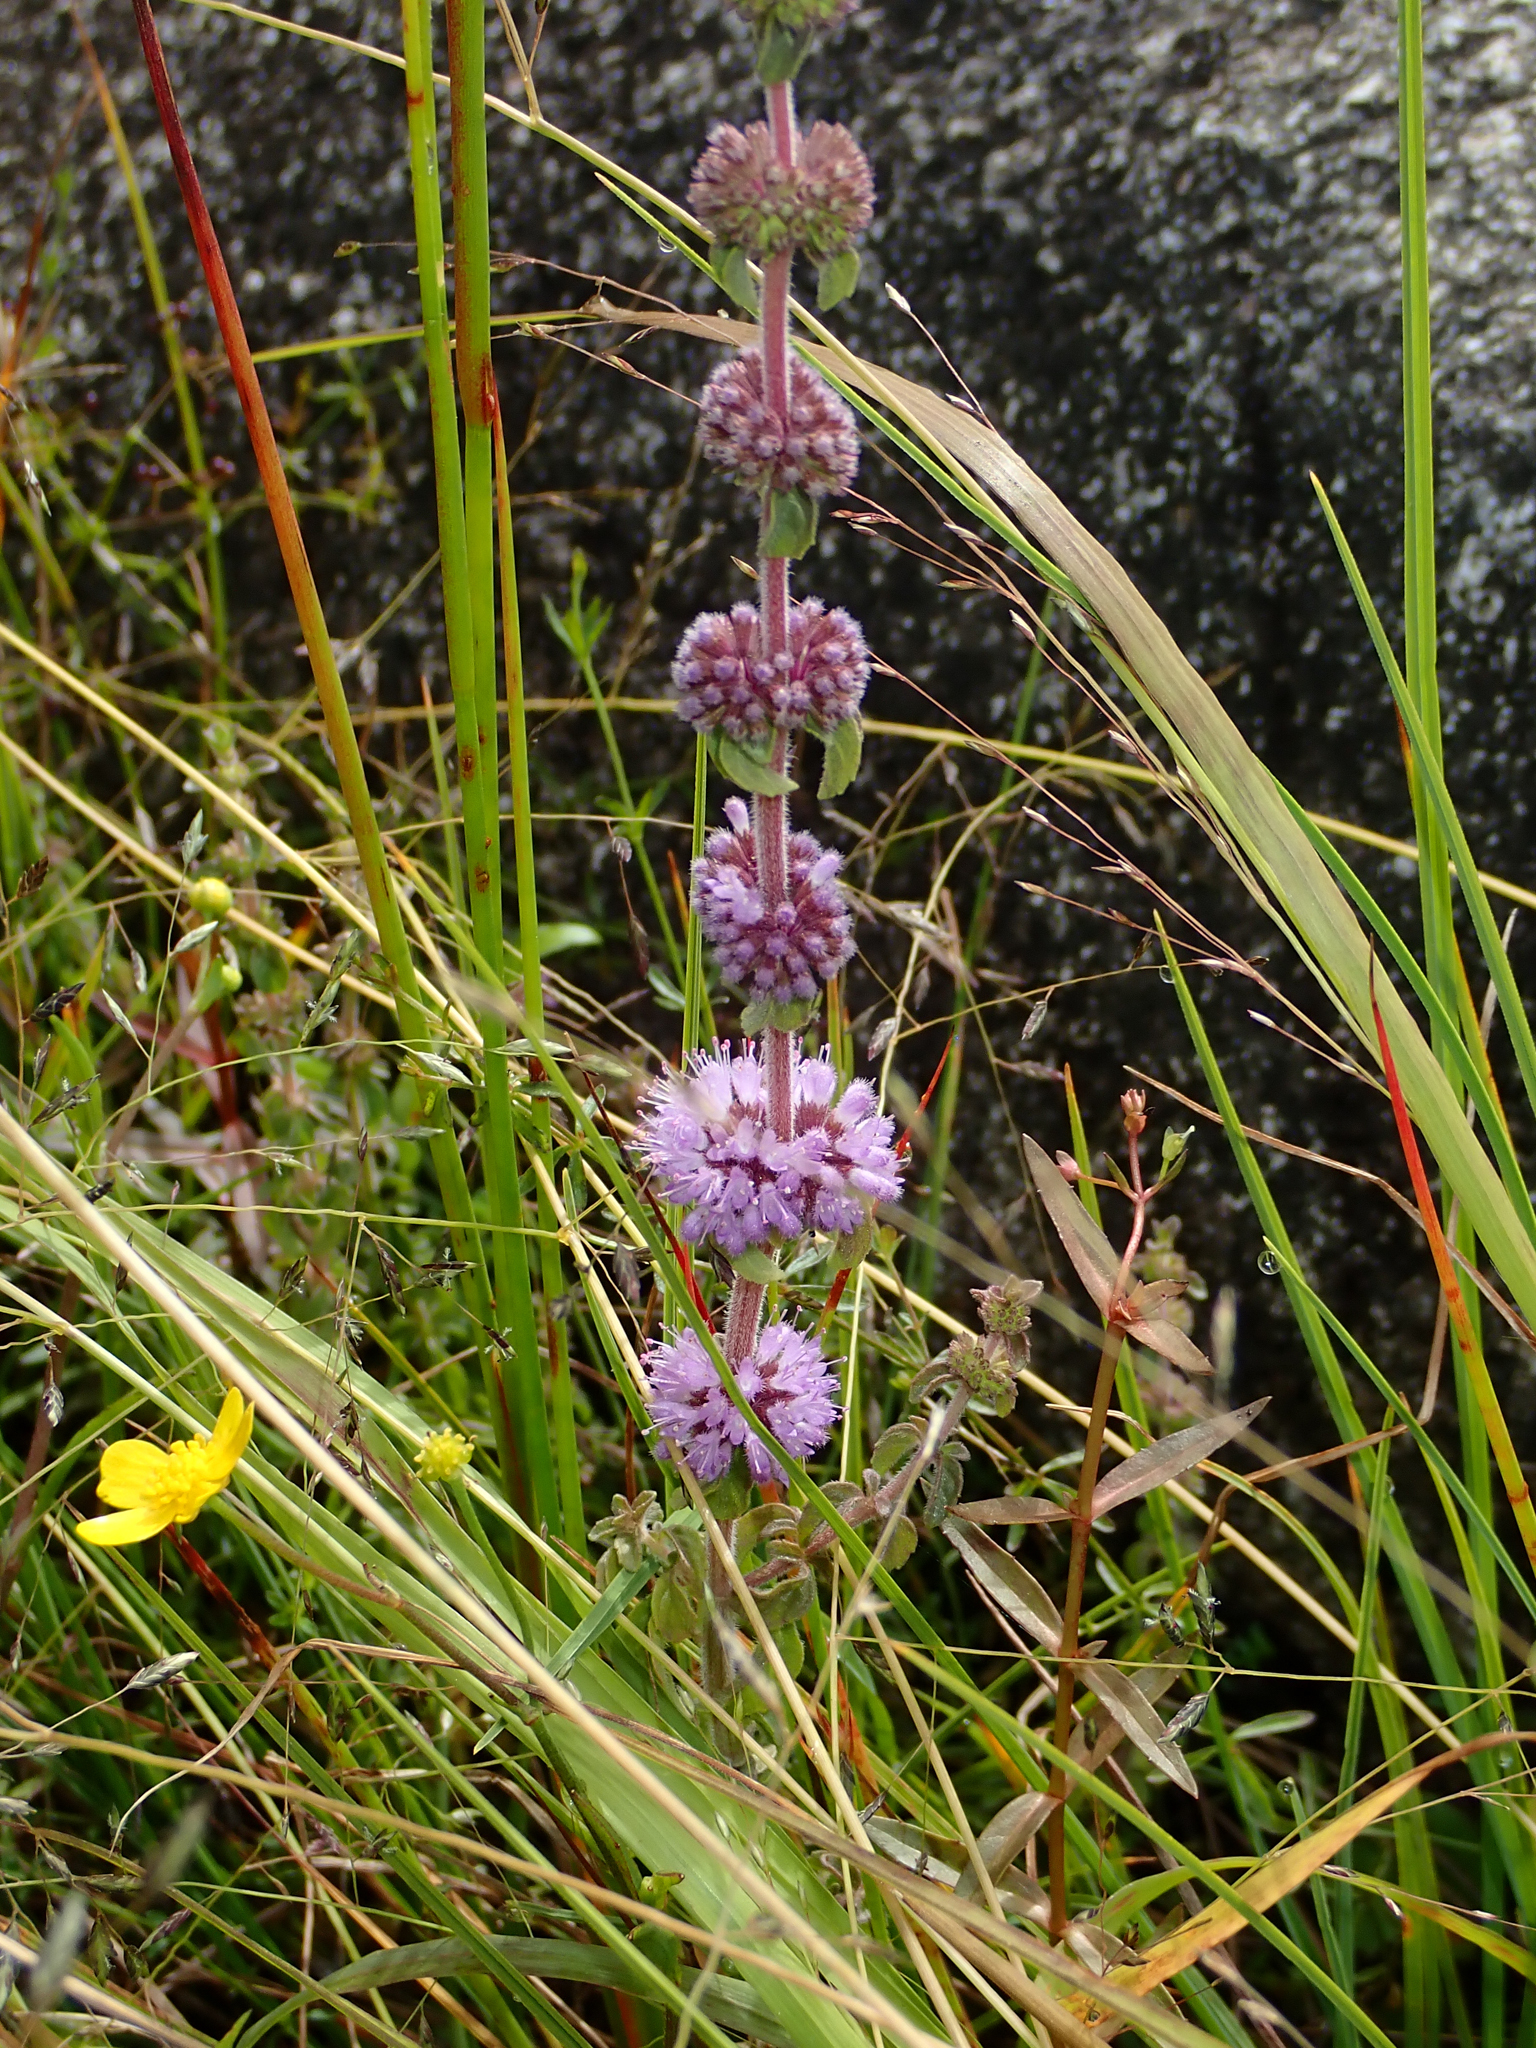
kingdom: Plantae
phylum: Tracheophyta
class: Magnoliopsida
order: Lamiales
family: Lamiaceae
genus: Mentha
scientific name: Mentha pulegium
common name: Pennyroyal
